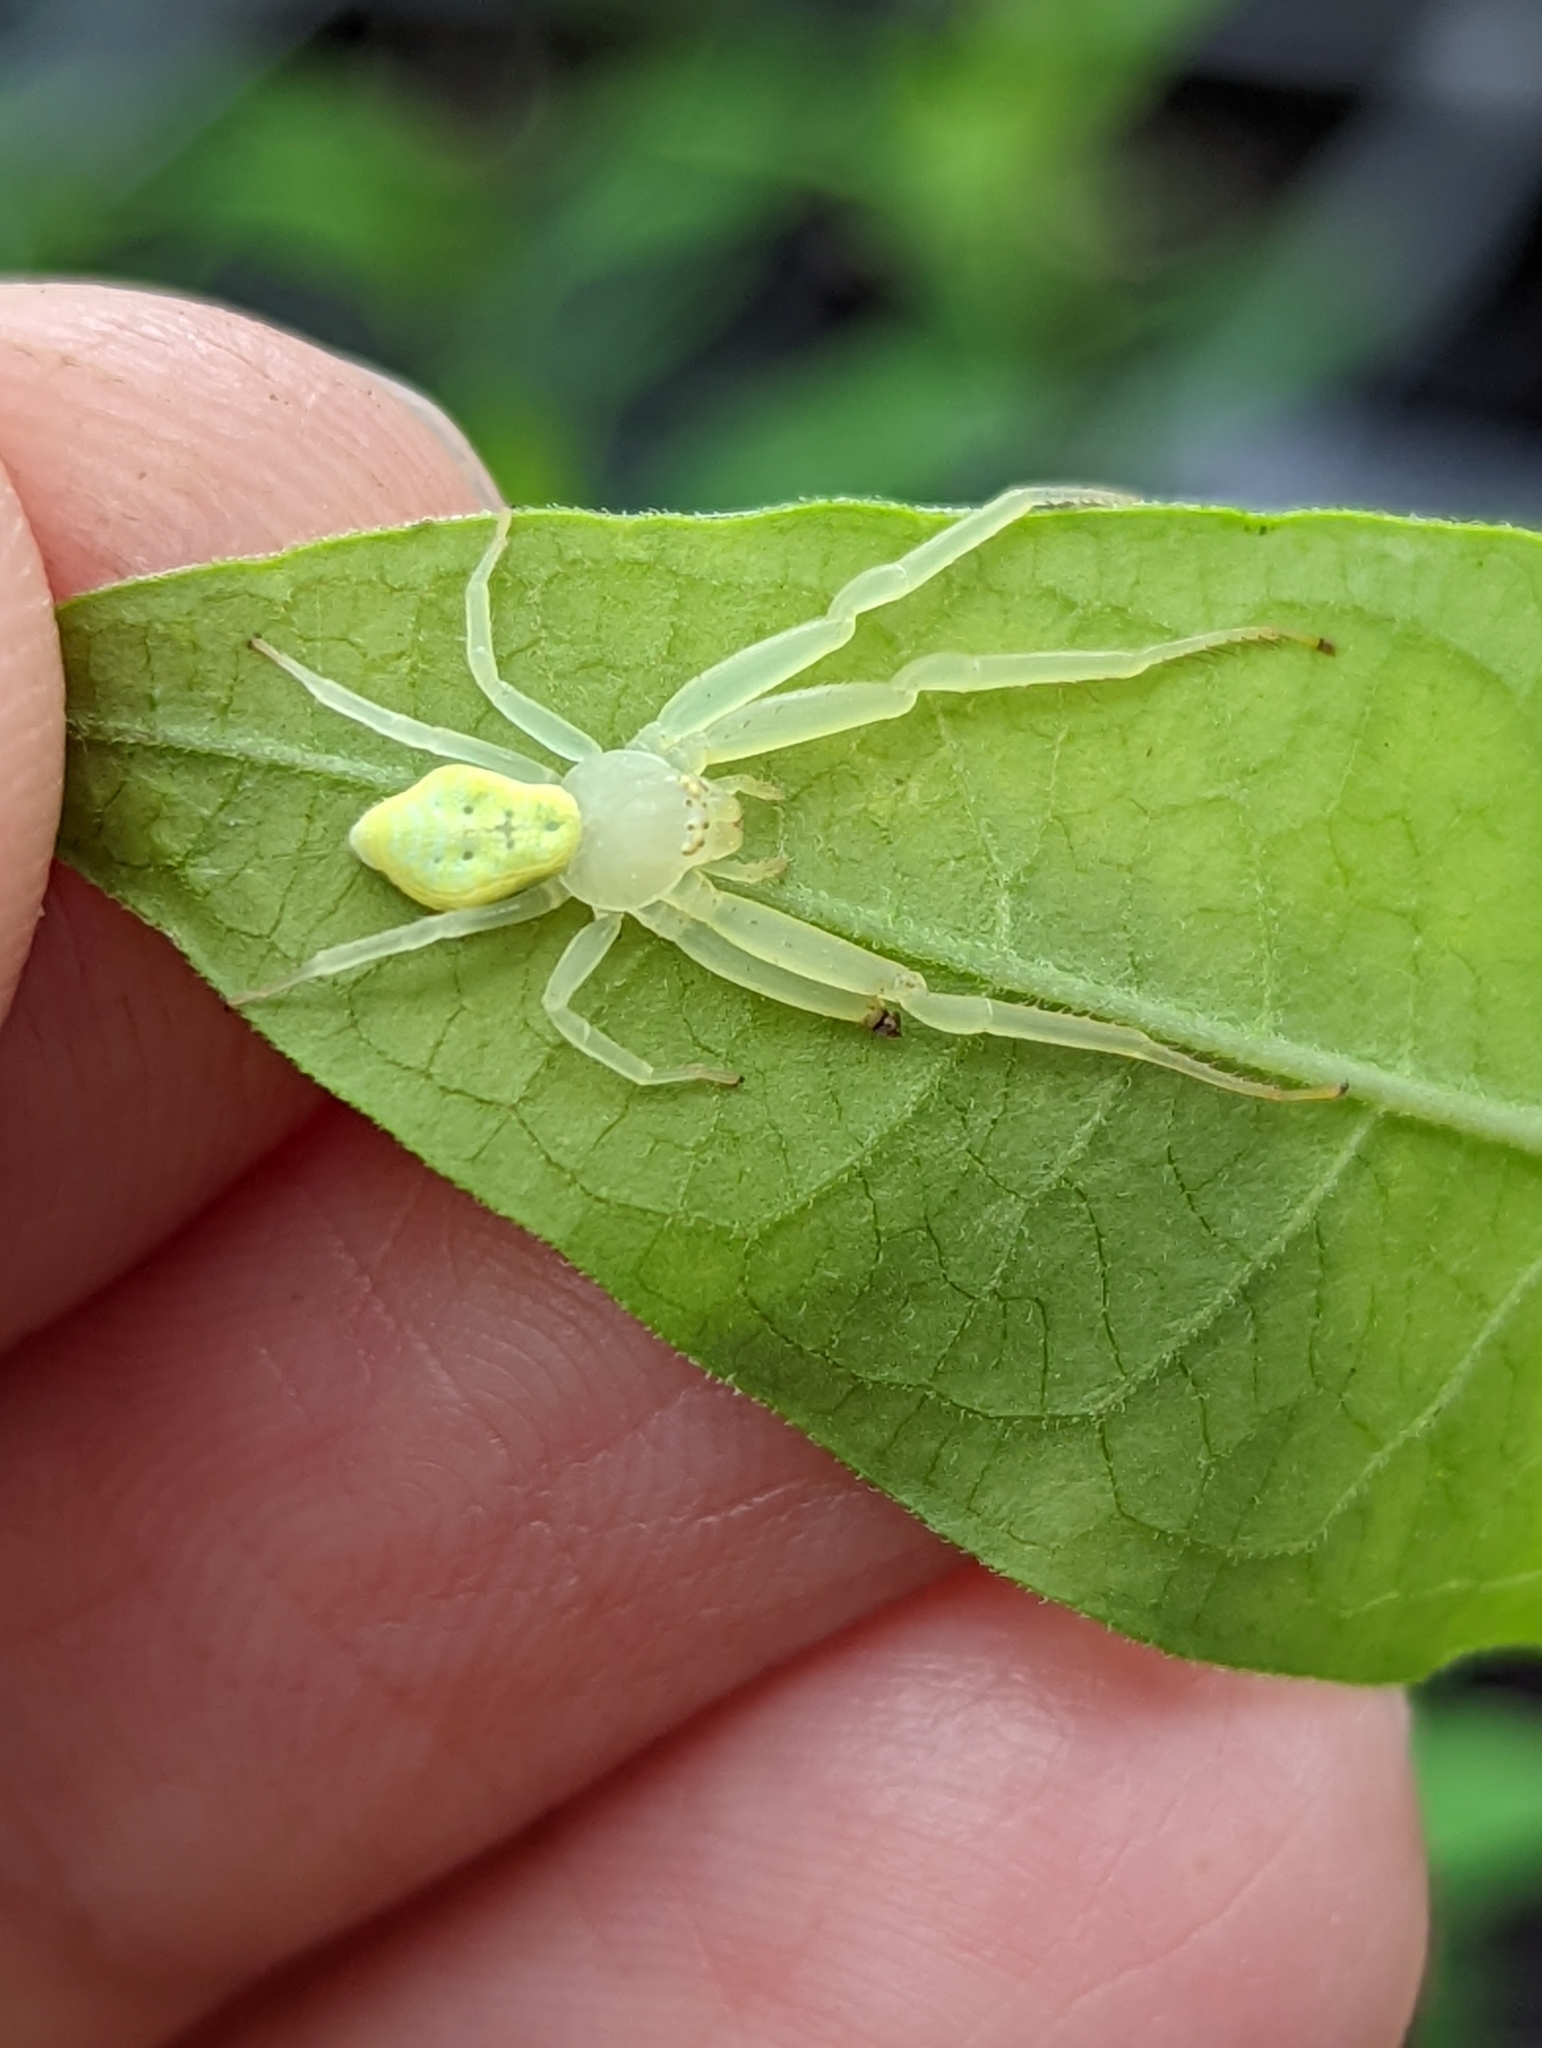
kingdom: Animalia
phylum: Arthropoda
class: Arachnida
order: Araneae
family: Thomisidae
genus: Misumessus
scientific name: Misumessus oblongus
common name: American green crab spider
